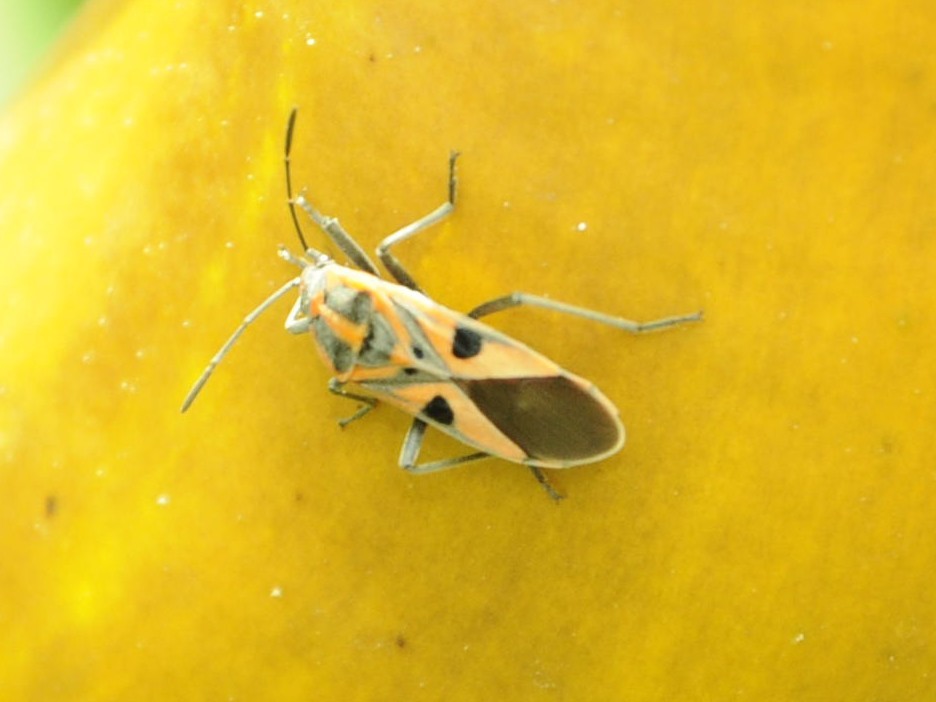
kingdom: Animalia
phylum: Arthropoda
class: Insecta
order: Hemiptera
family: Lygaeidae
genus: Spilostethus
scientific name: Spilostethus hospes
